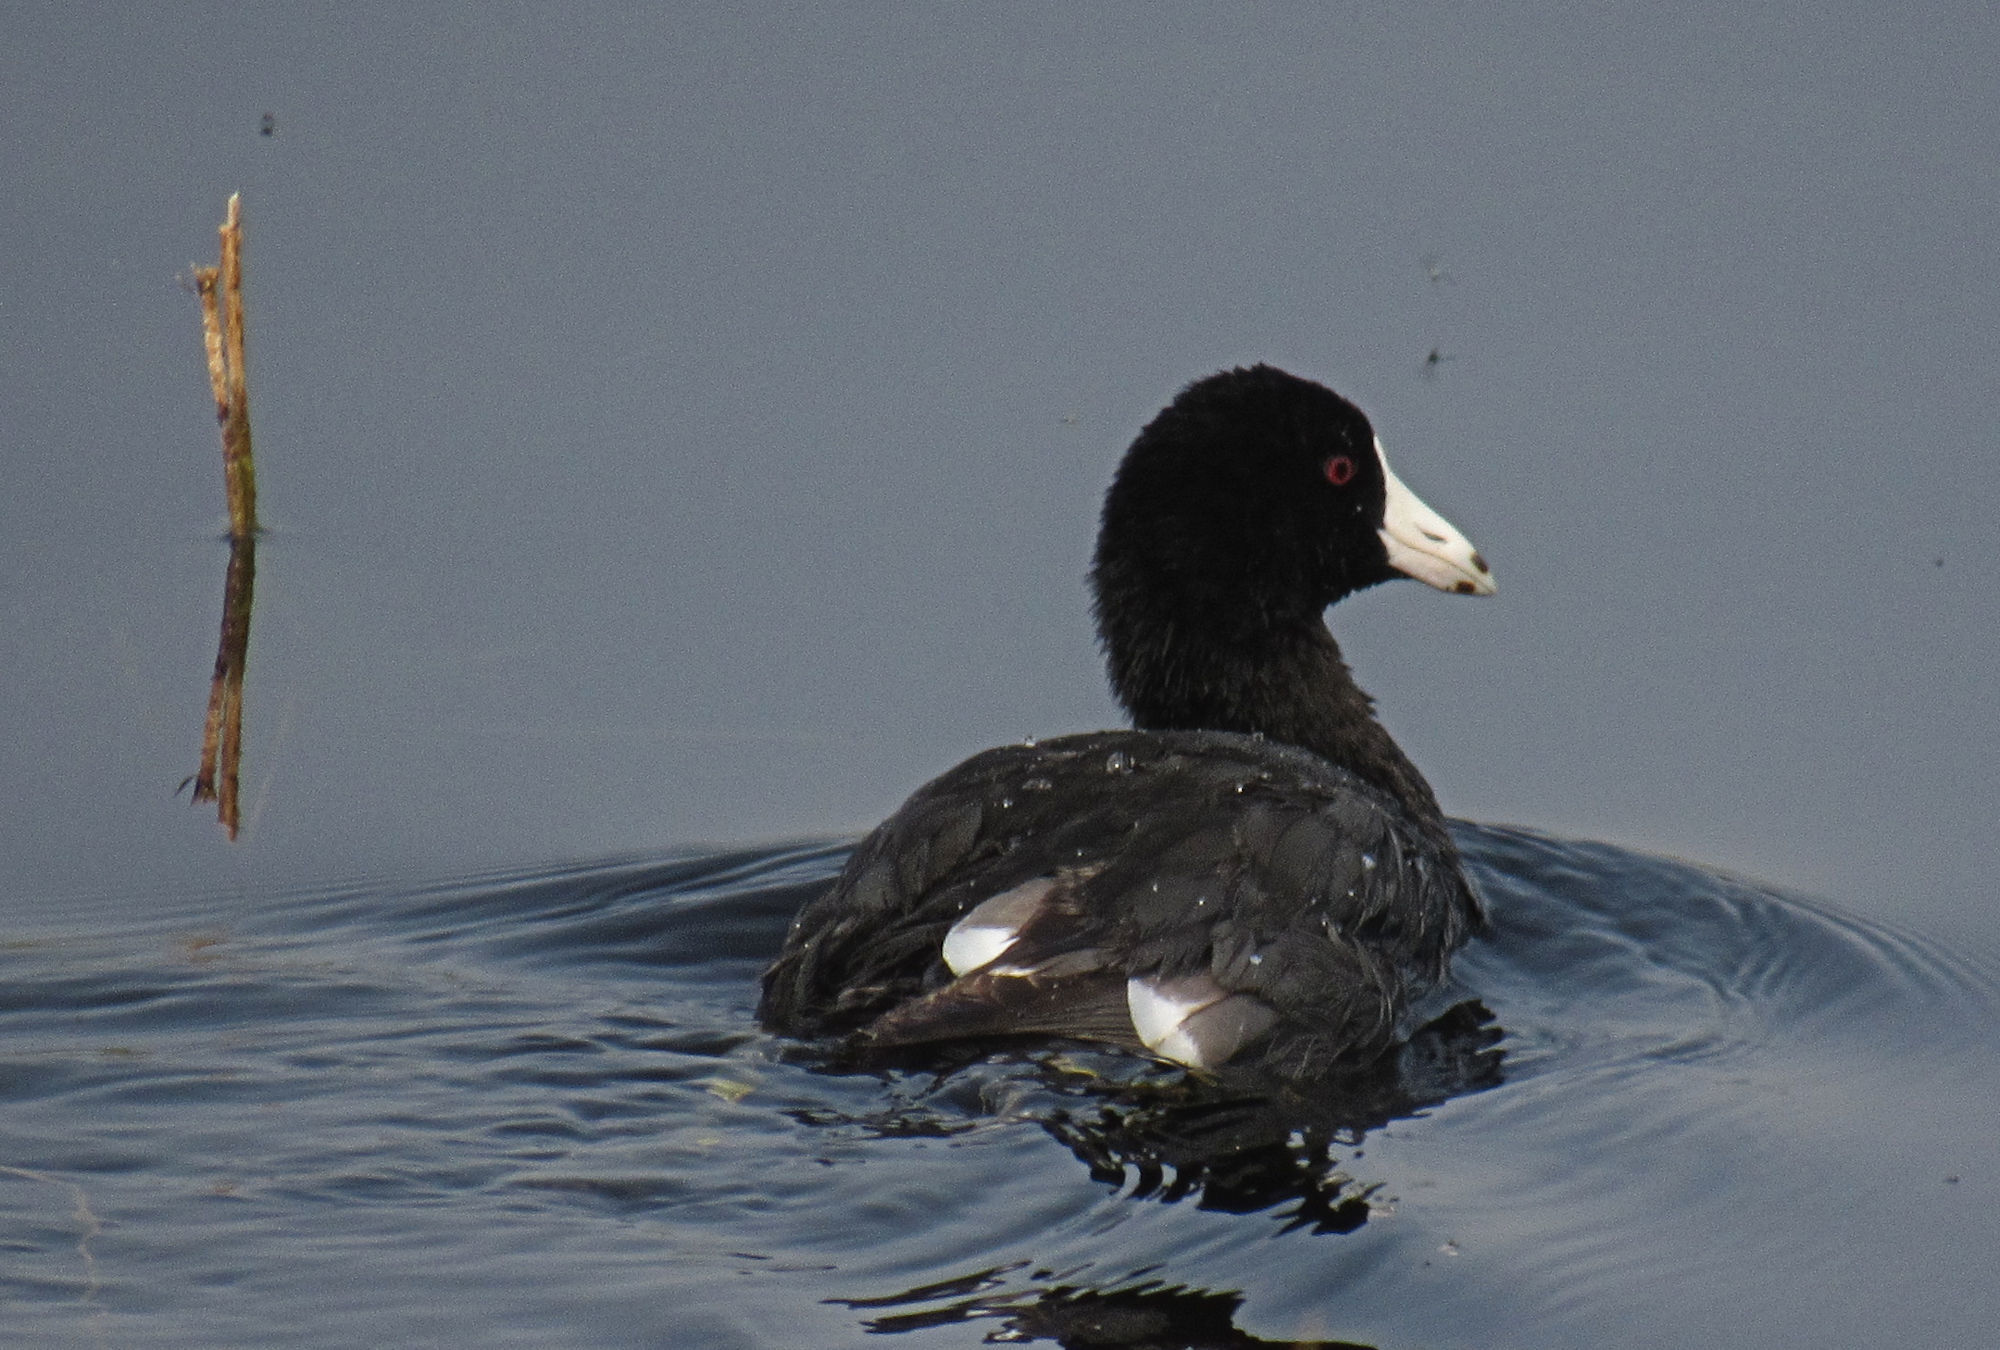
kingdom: Animalia
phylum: Chordata
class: Aves
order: Gruiformes
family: Rallidae
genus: Fulica
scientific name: Fulica americana
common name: American coot
